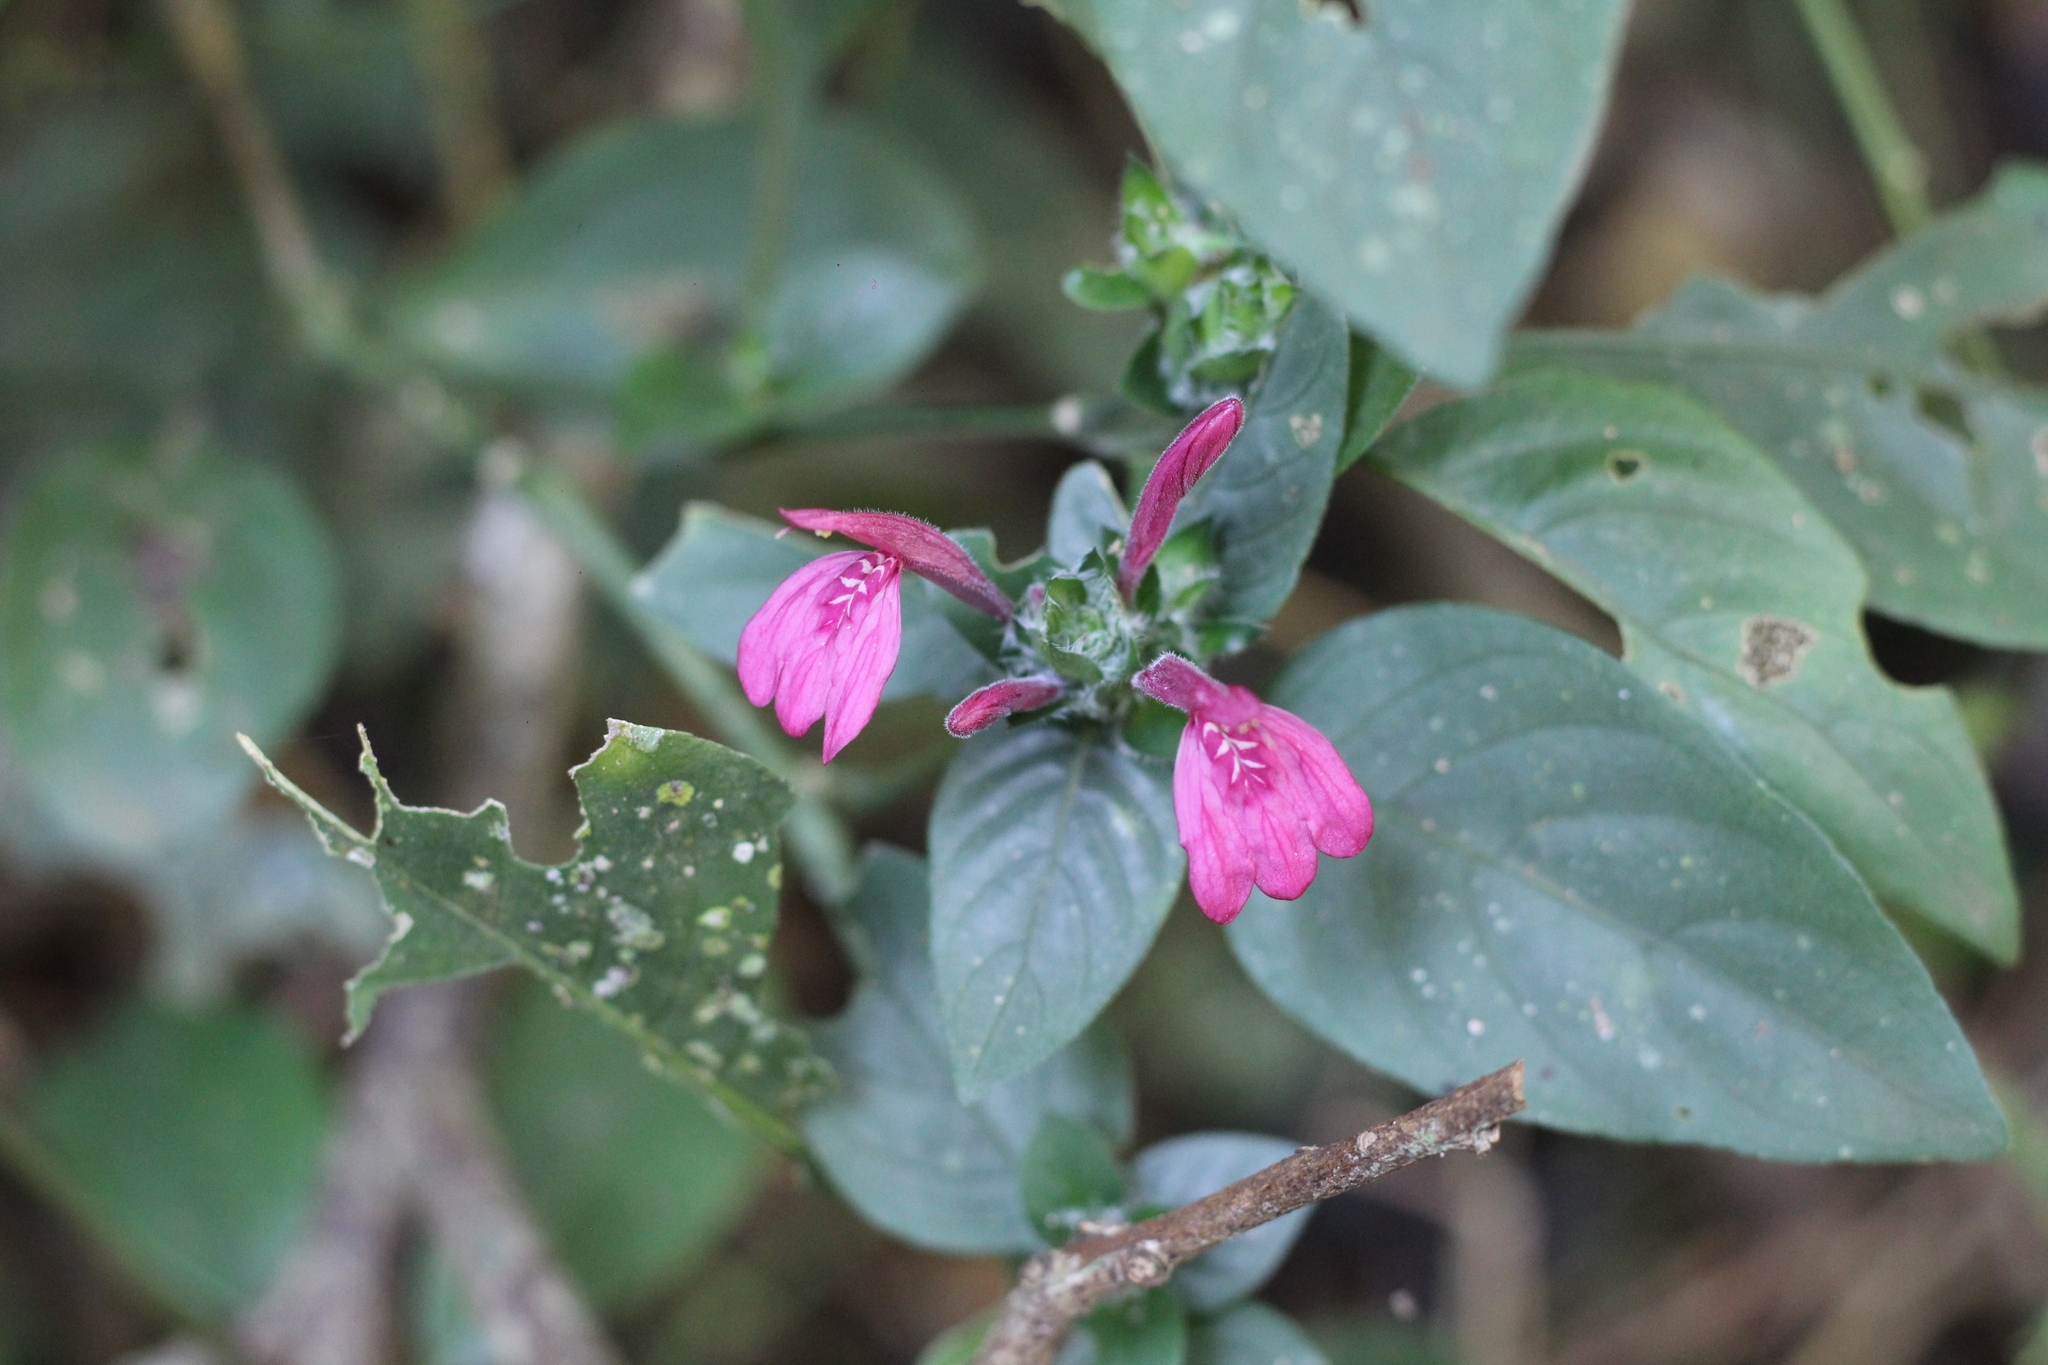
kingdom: Plantae
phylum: Tracheophyta
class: Magnoliopsida
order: Lamiales
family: Acanthaceae
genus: Justicia
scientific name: Justicia ramulosa
